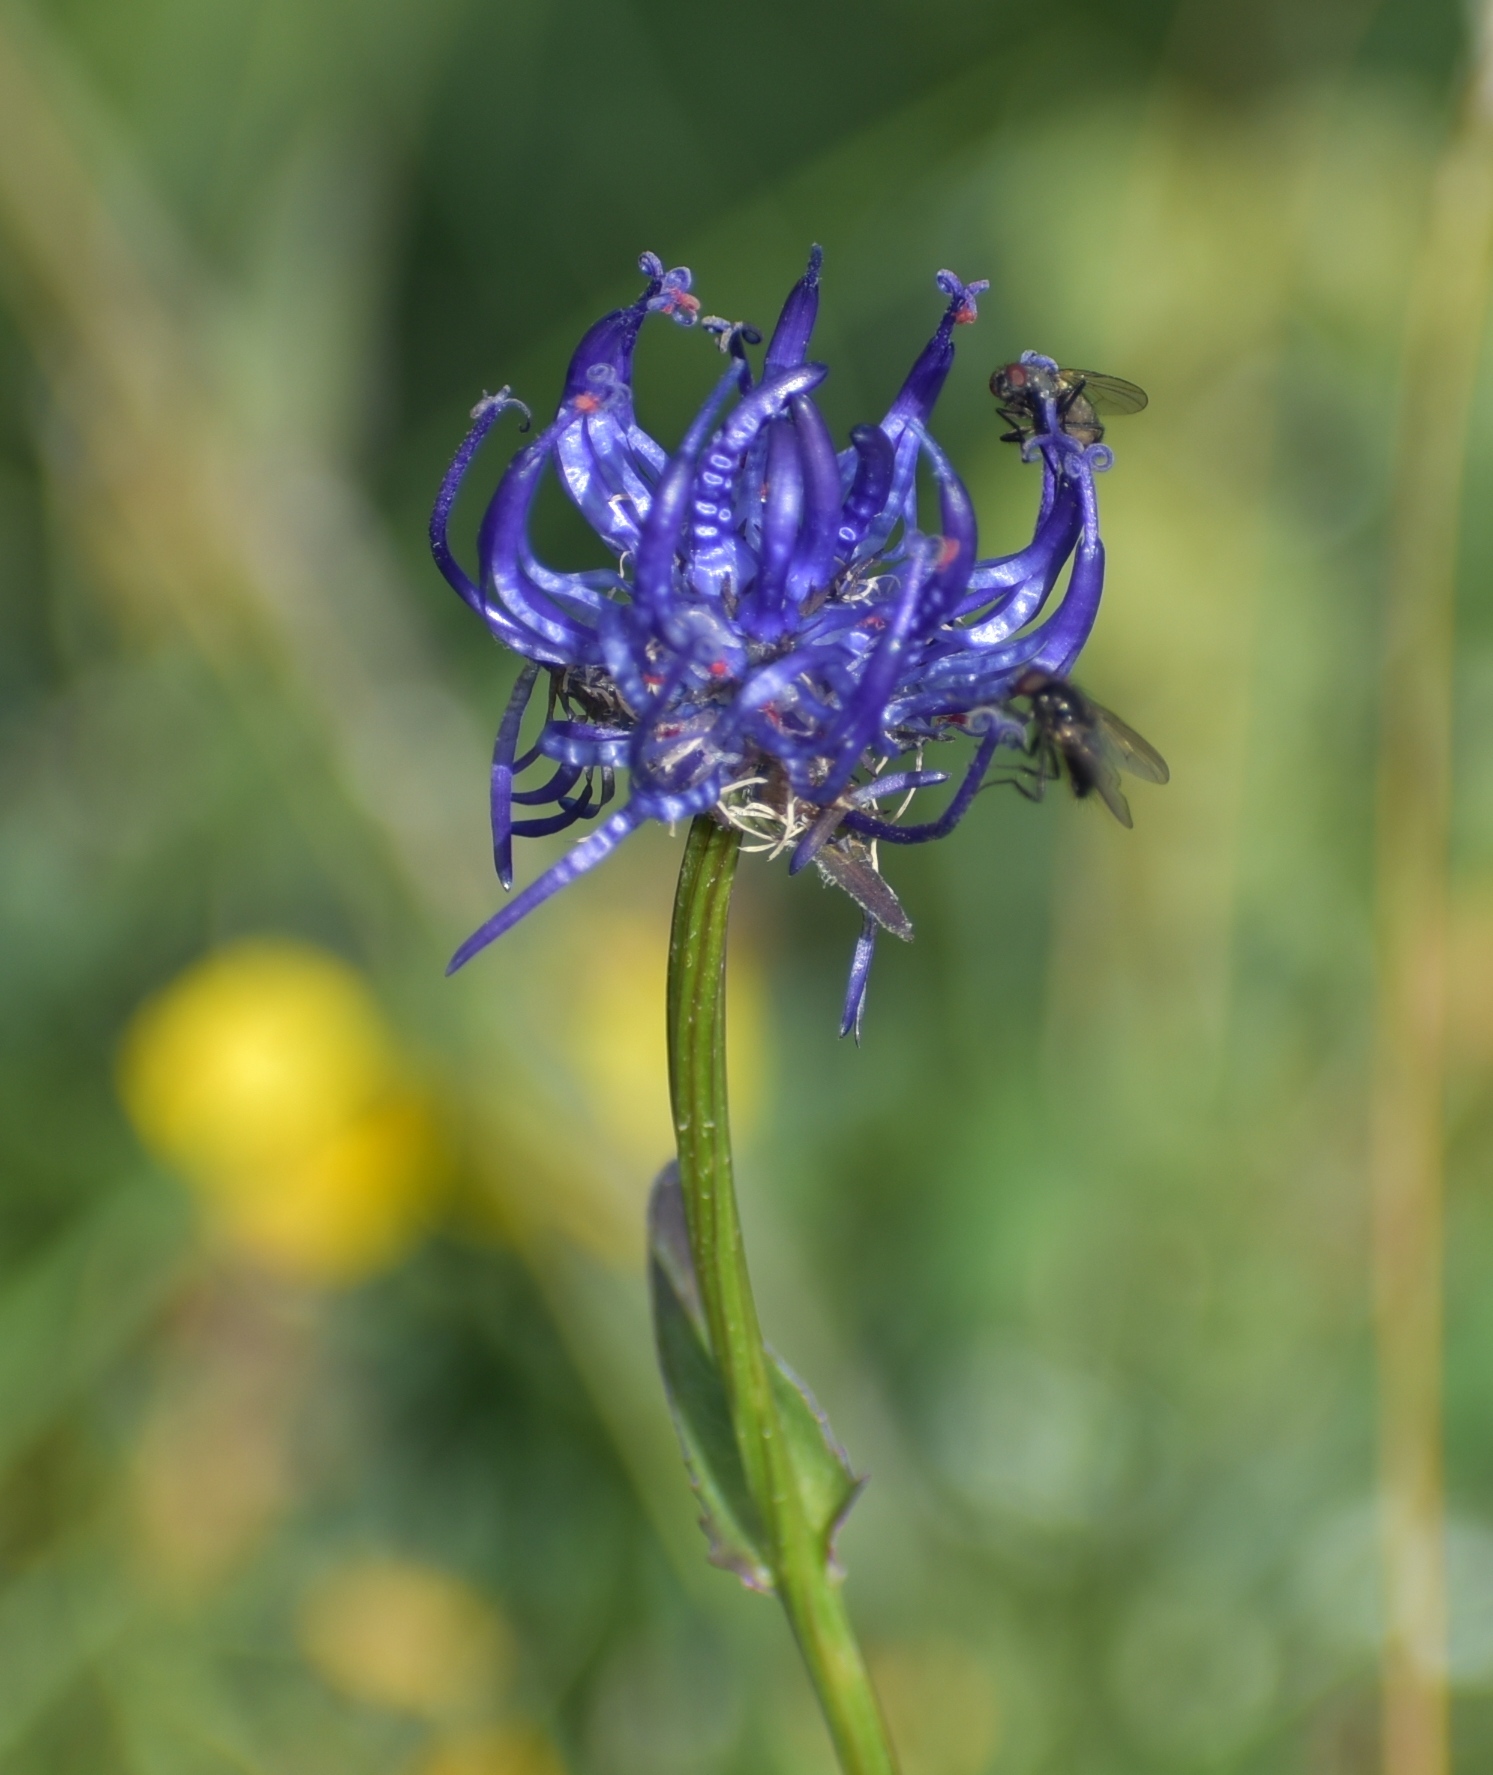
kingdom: Plantae
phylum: Tracheophyta
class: Magnoliopsida
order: Asterales
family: Campanulaceae
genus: Phyteuma
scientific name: Phyteuma orbiculare
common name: Round-headed rampion
